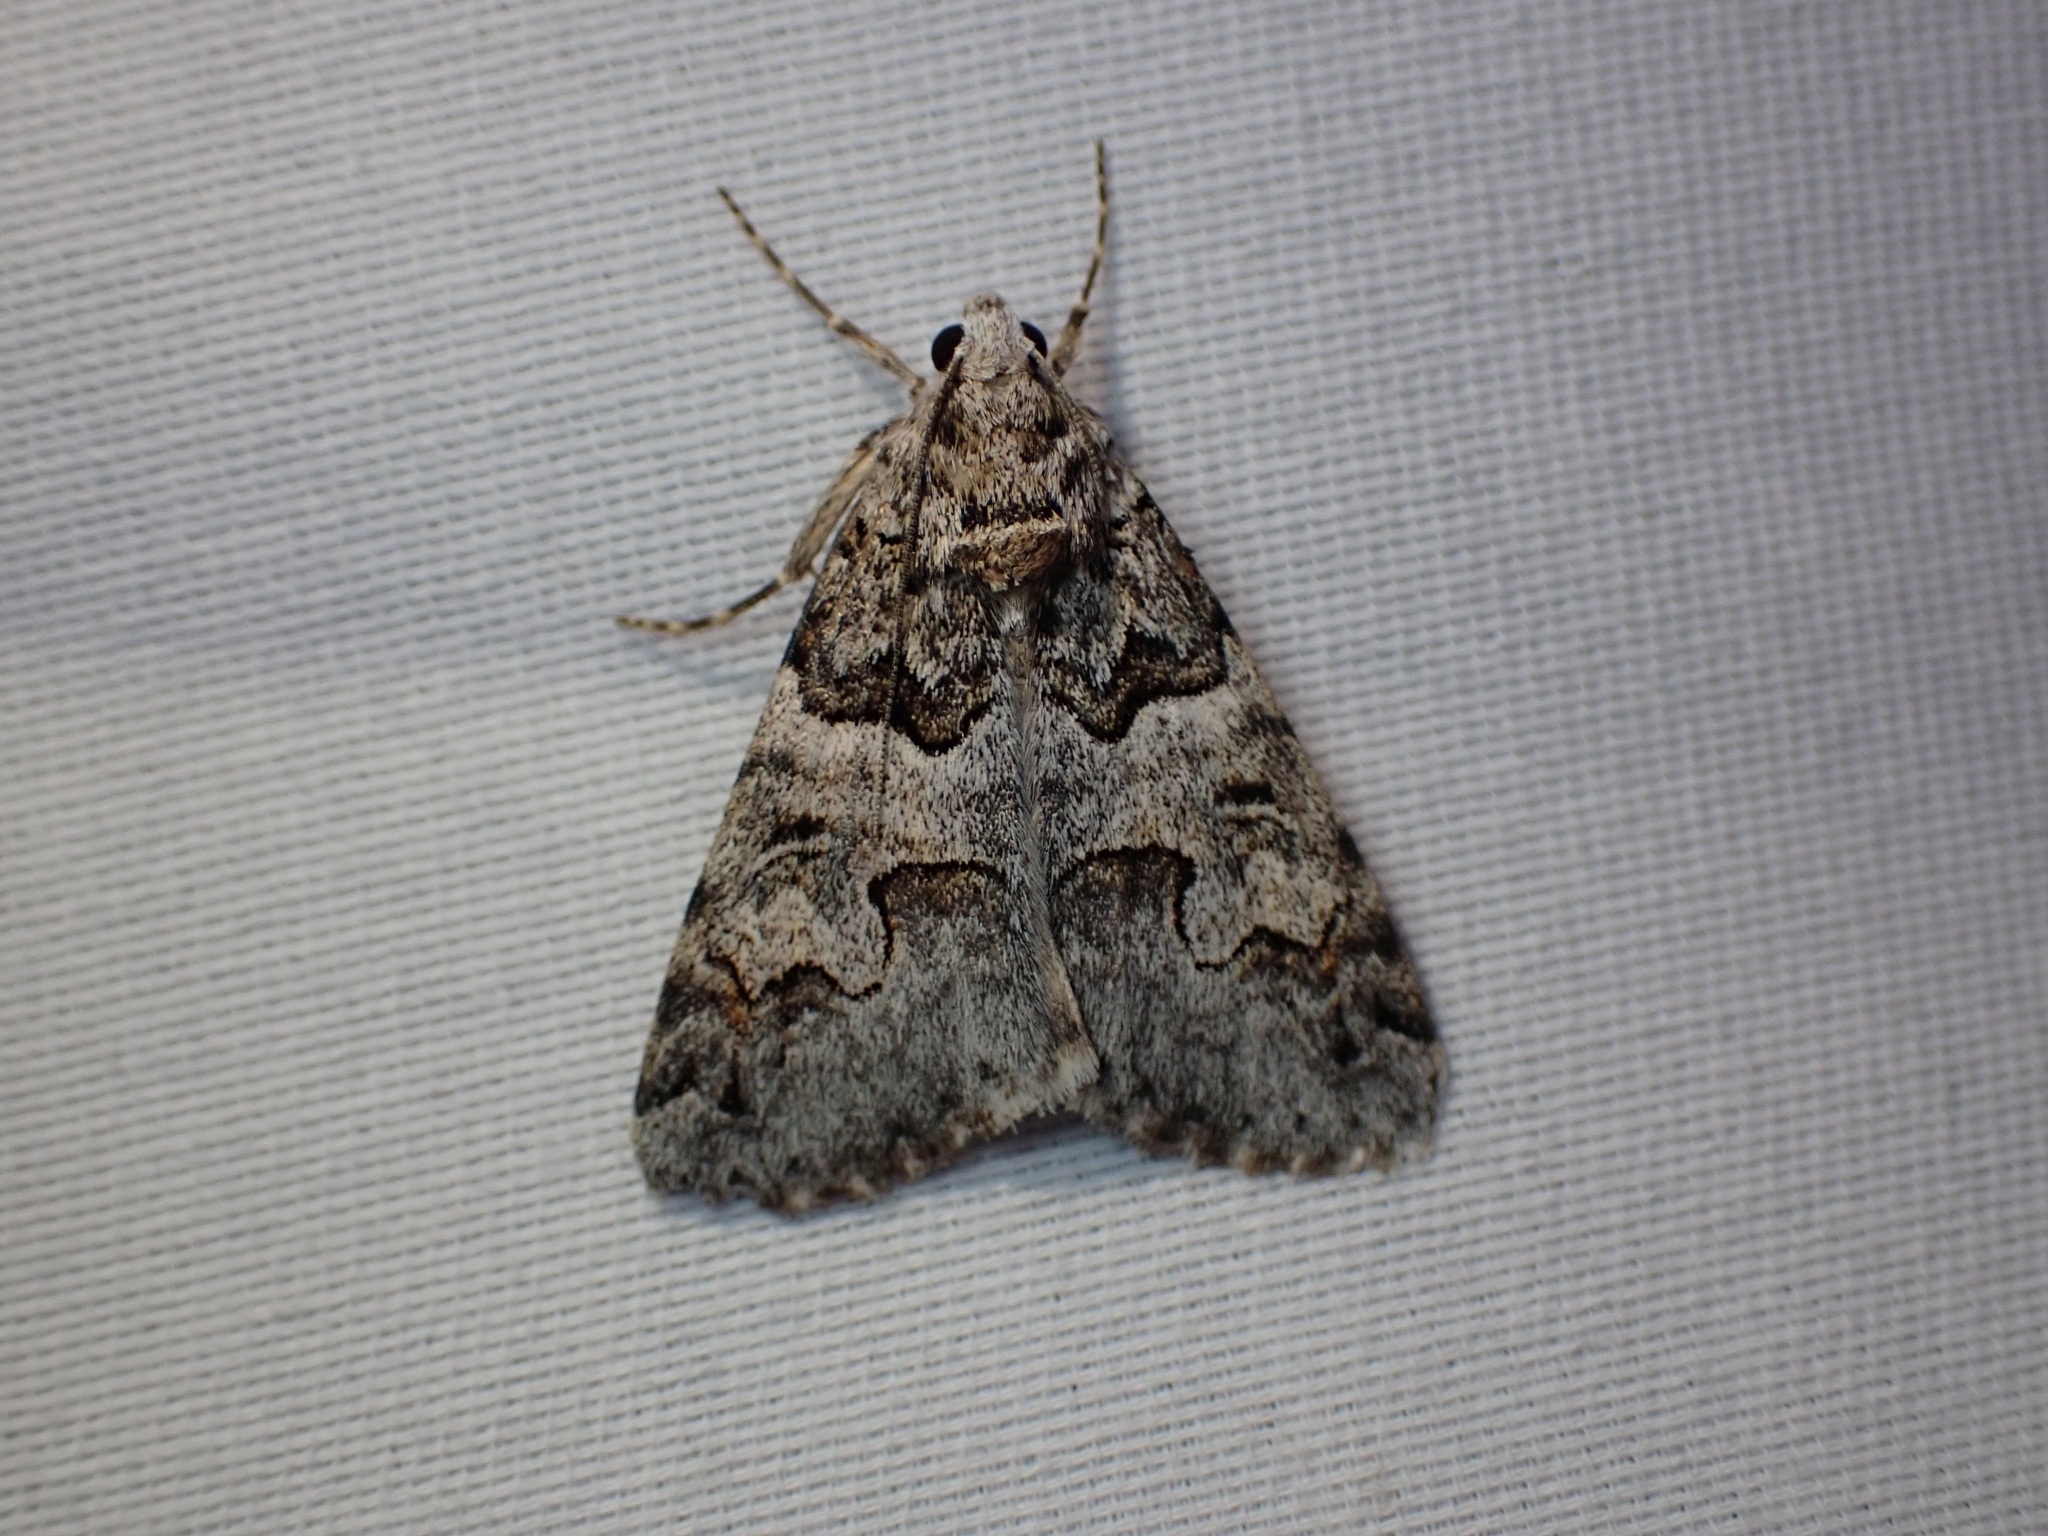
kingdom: Animalia
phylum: Arthropoda
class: Insecta
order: Lepidoptera
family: Erebidae
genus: Drasteria
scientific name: Drasteria sabulosa
